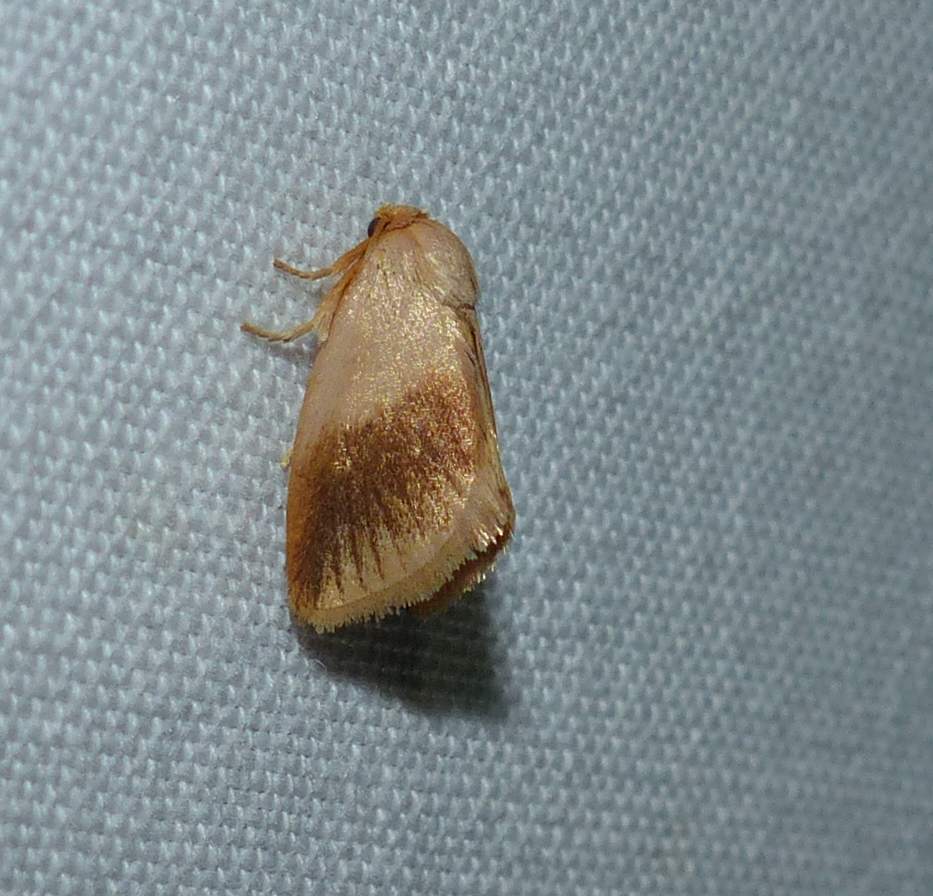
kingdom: Animalia
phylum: Arthropoda
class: Insecta
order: Lepidoptera
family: Limacodidae
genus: Tortricidia
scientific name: Tortricidia testacea
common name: Early button slug moth
